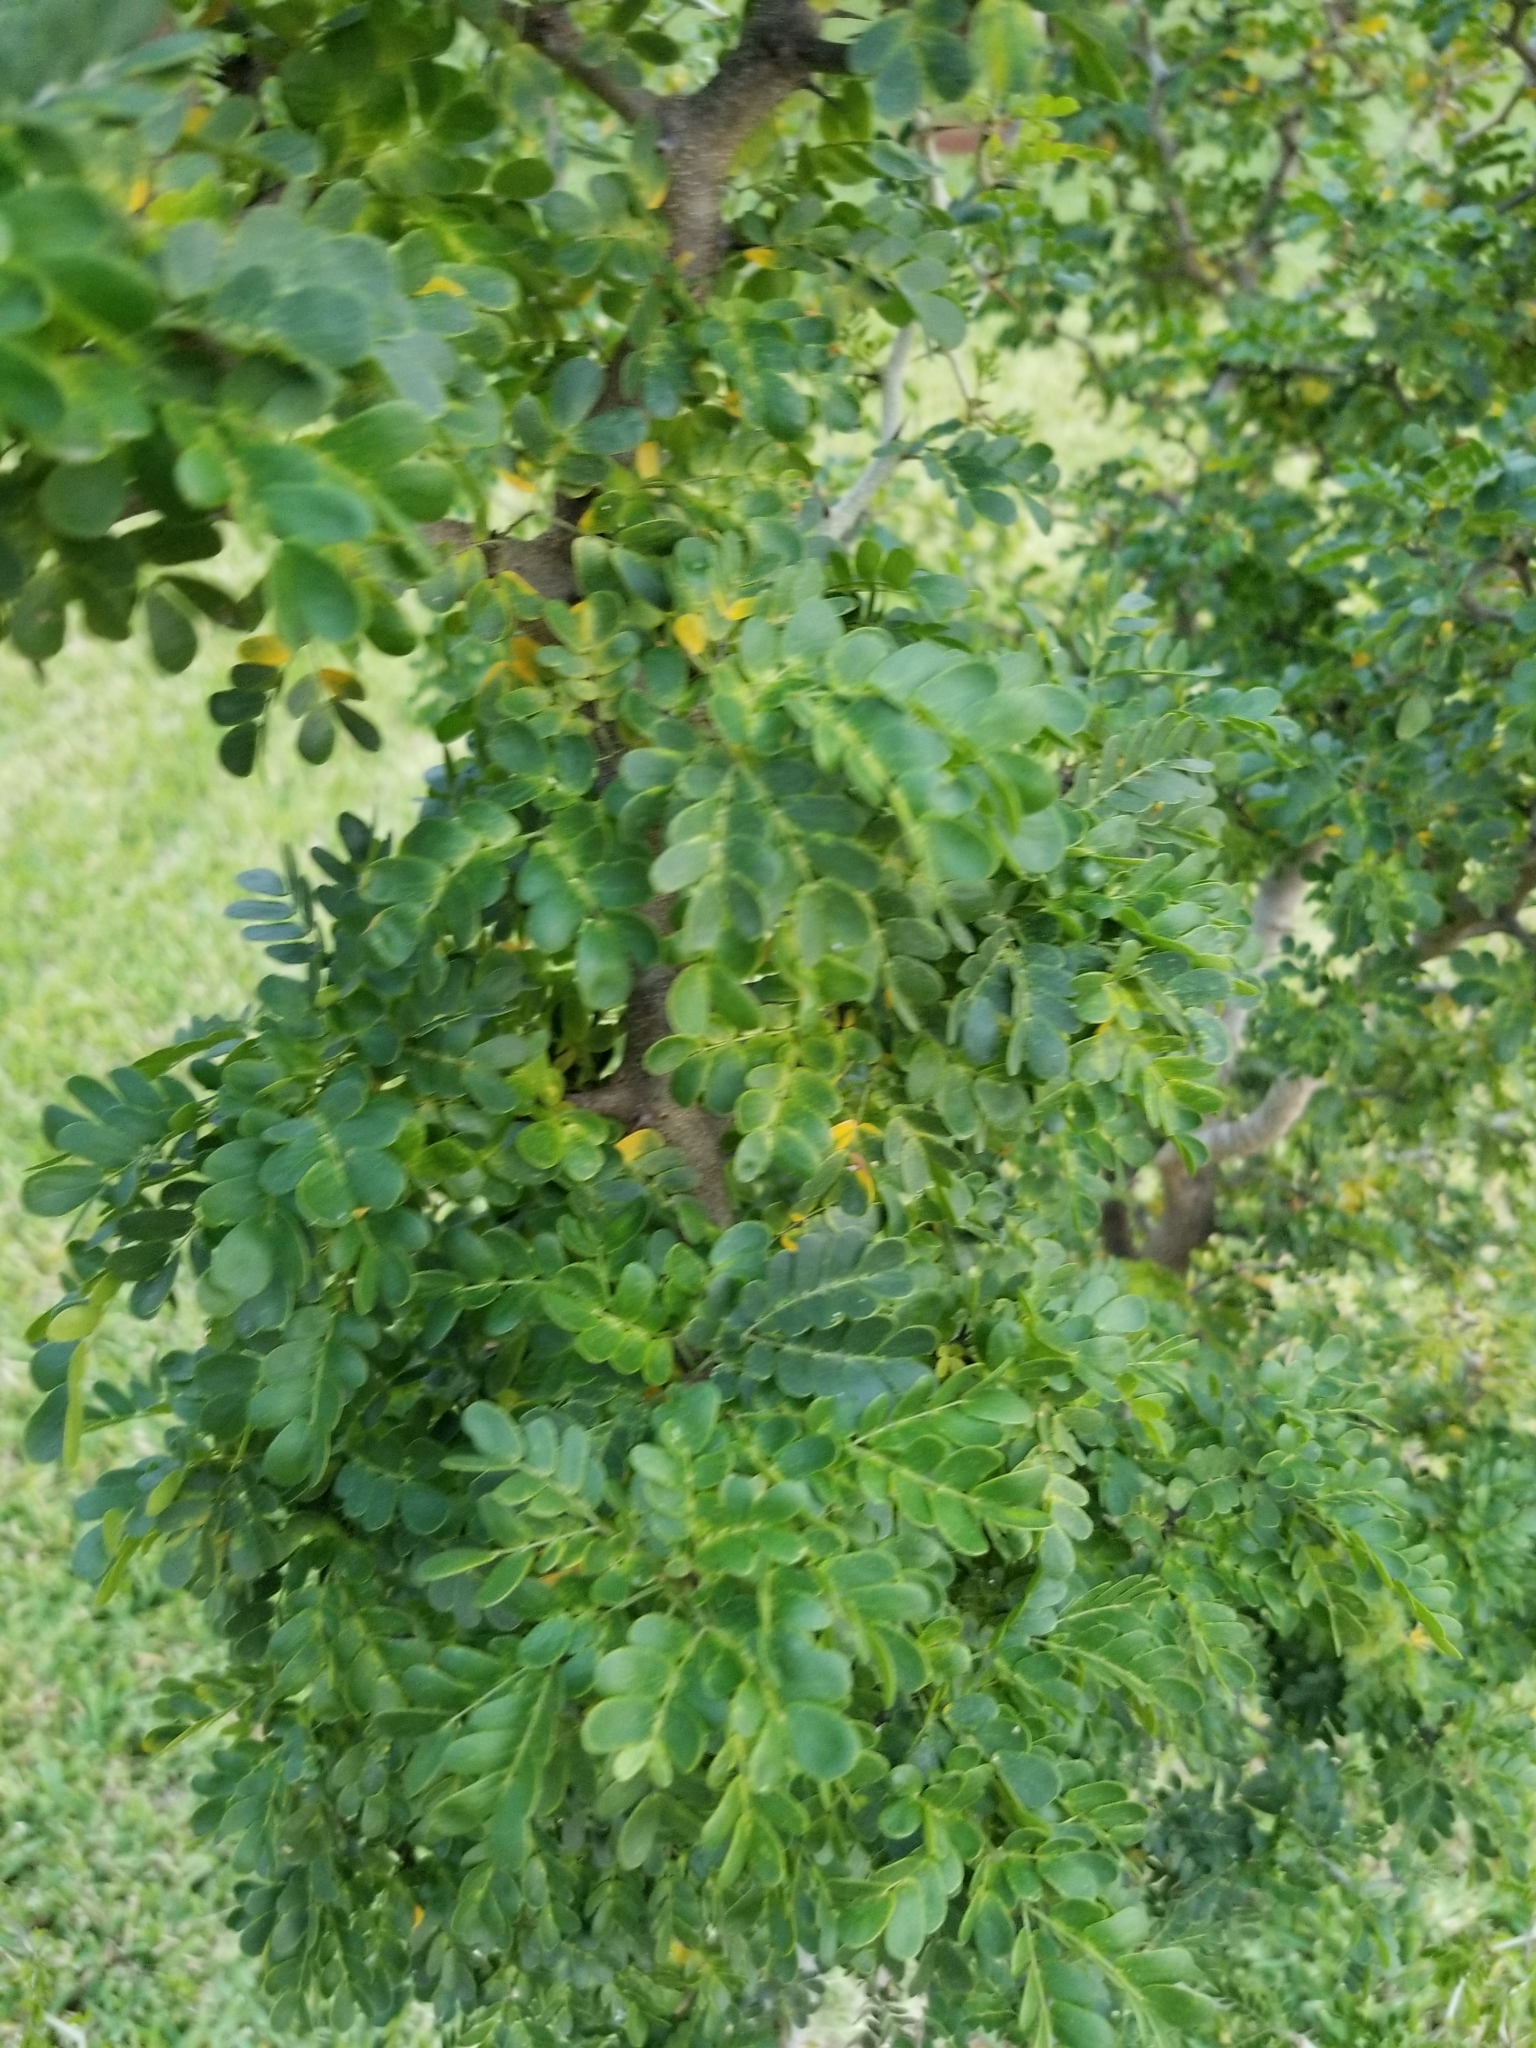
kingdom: Plantae
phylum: Tracheophyta
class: Magnoliopsida
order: Fabales
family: Fabaceae
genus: Ebenopsis
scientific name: Ebenopsis ebano
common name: Ebony blackbead
